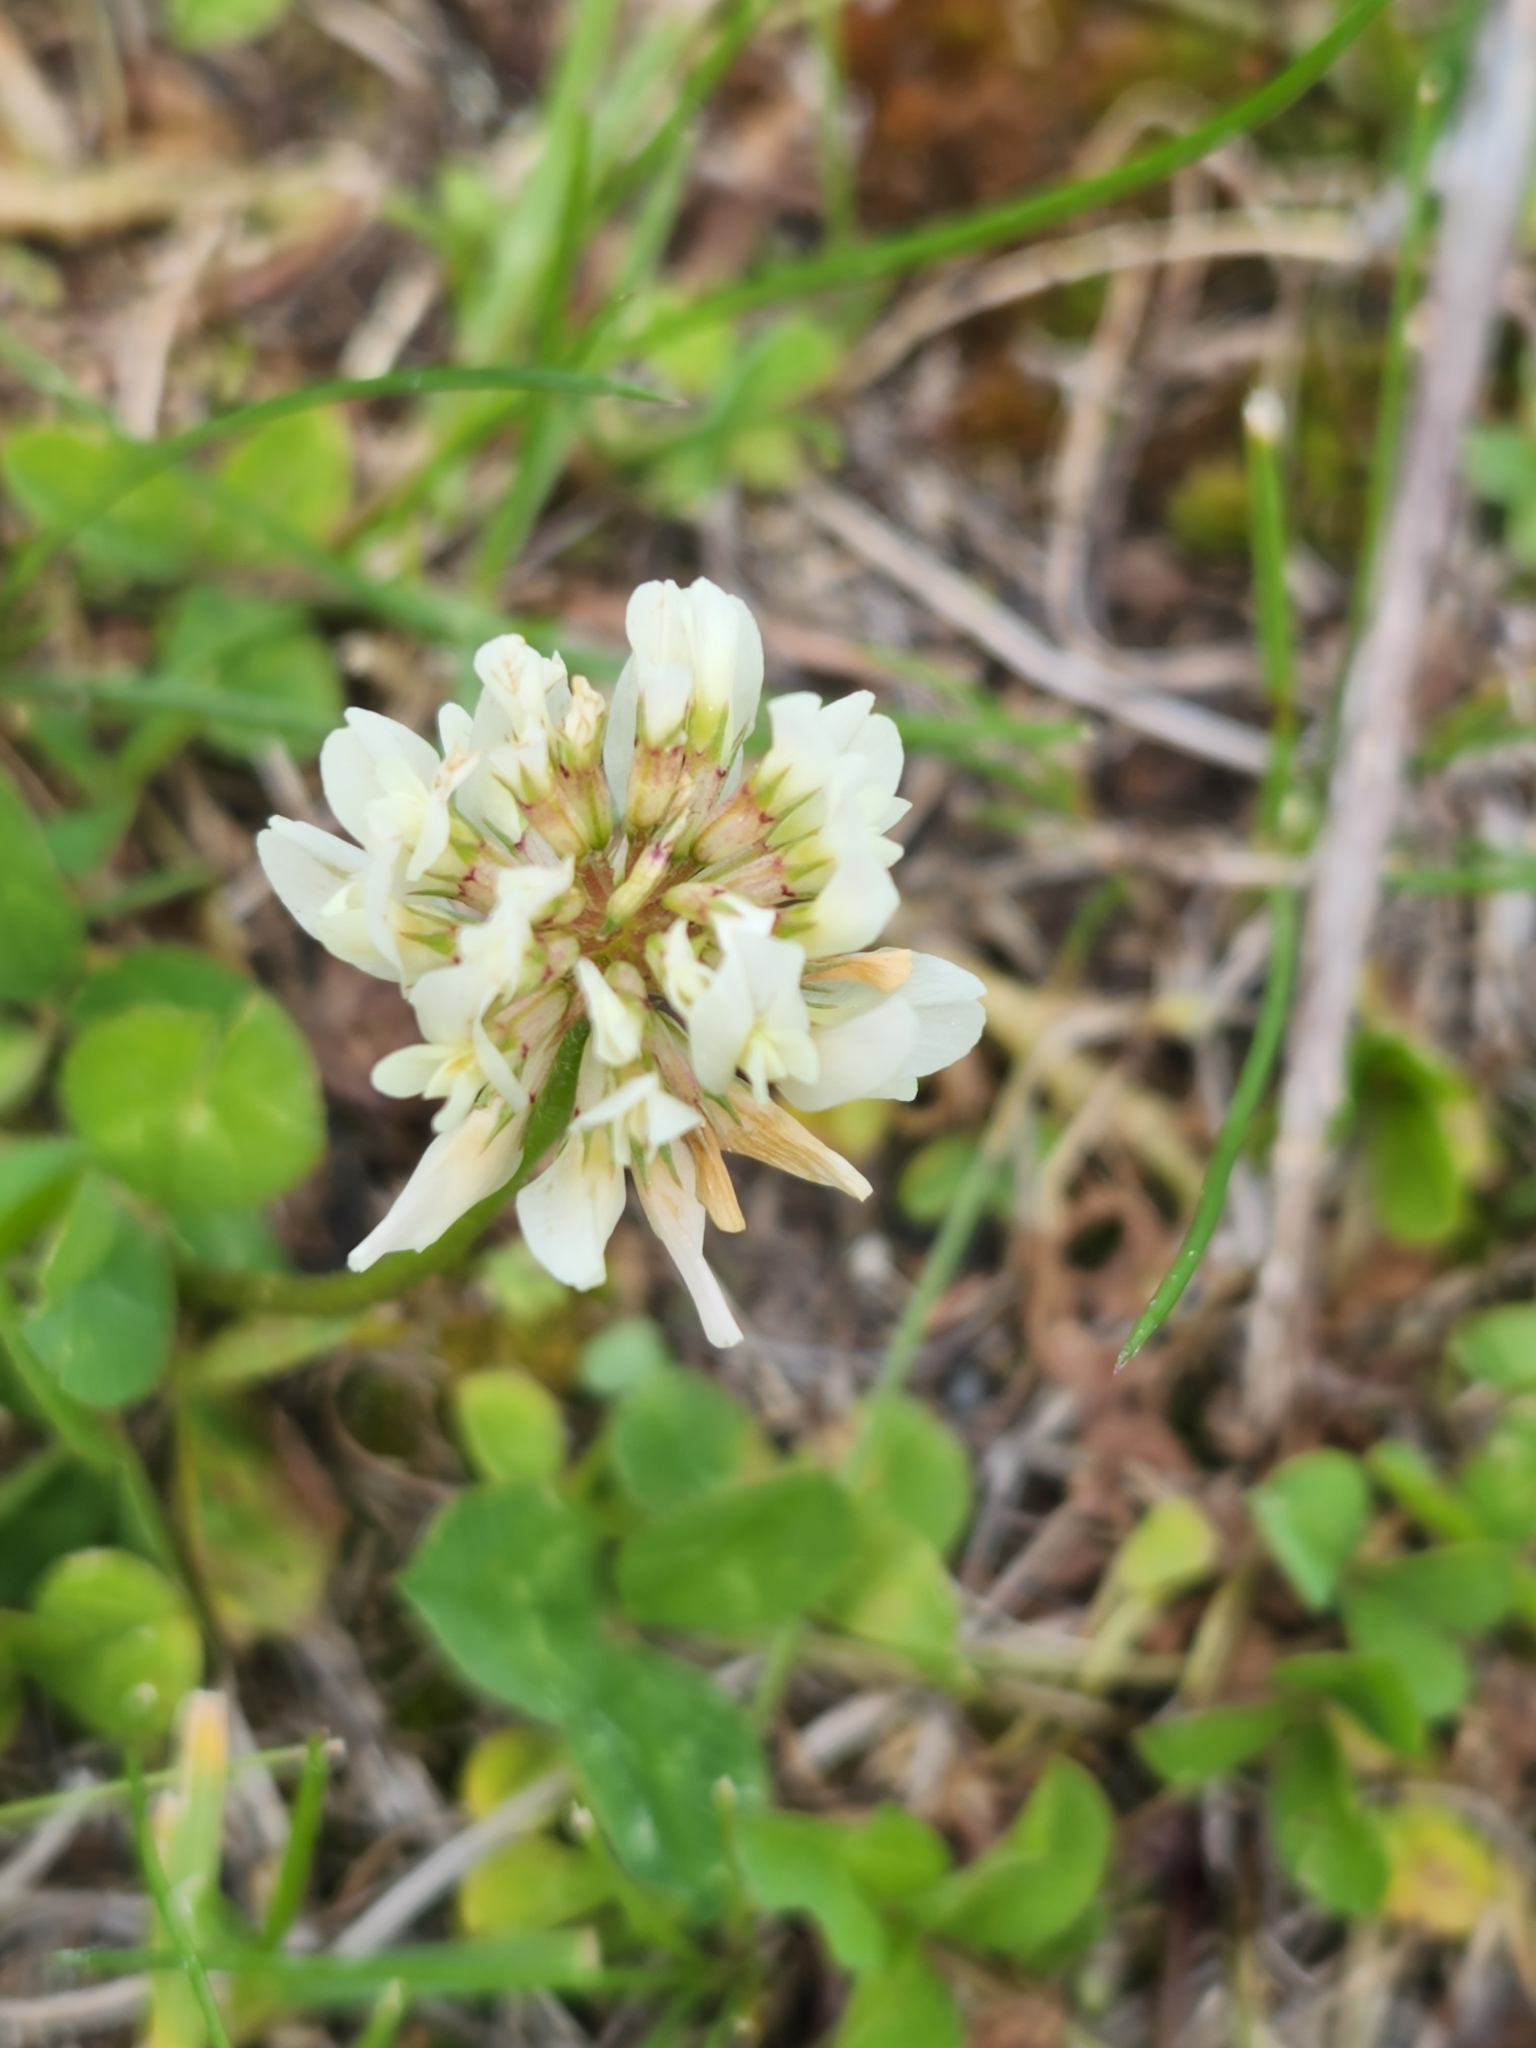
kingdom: Plantae
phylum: Tracheophyta
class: Magnoliopsida
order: Fabales
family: Fabaceae
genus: Trifolium
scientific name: Trifolium repens
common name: White clover
